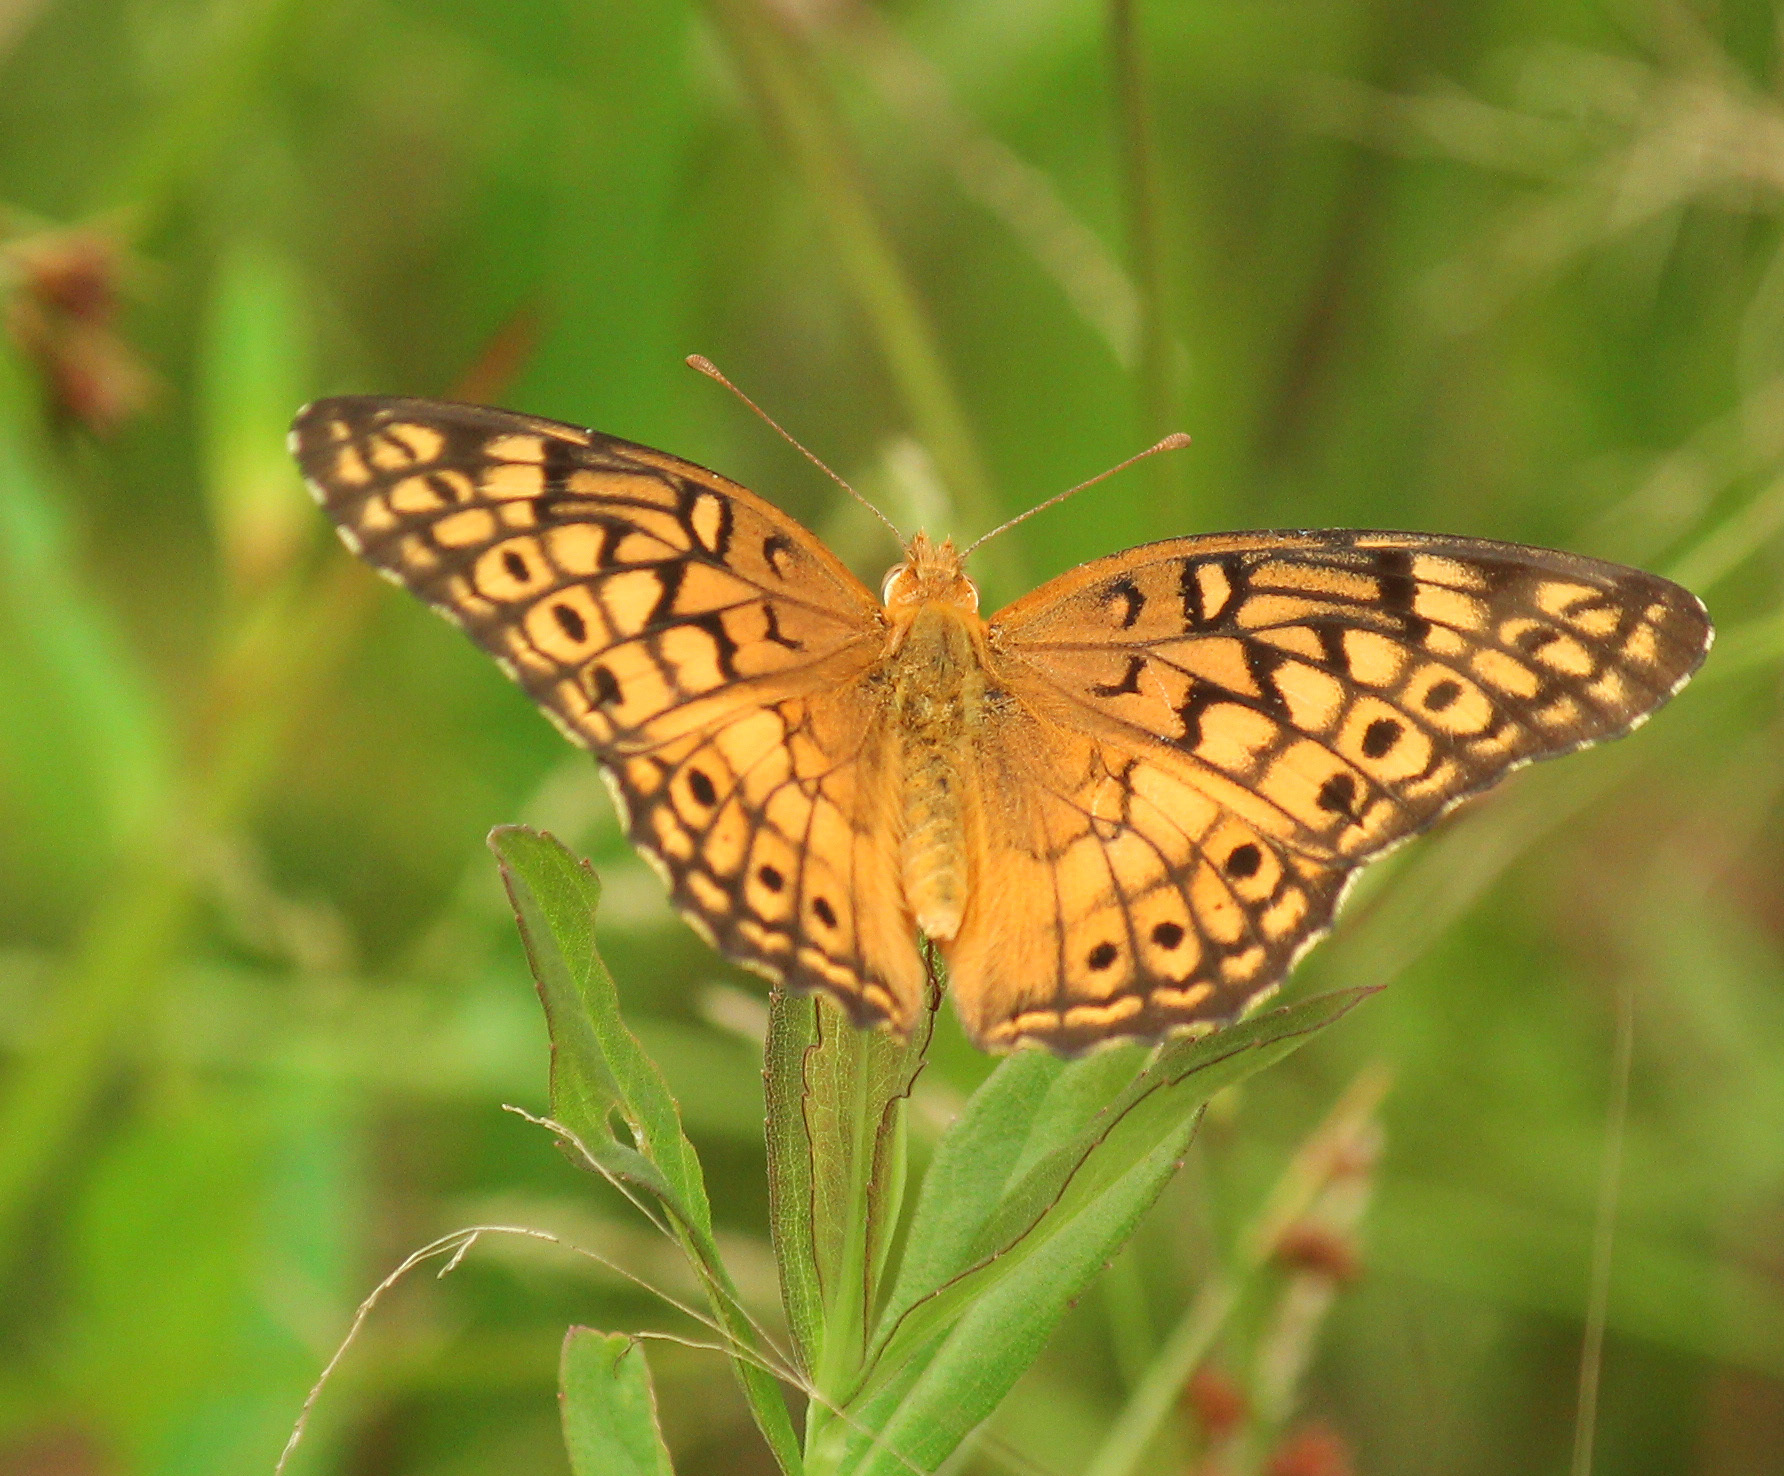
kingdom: Animalia
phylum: Arthropoda
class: Insecta
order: Lepidoptera
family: Nymphalidae
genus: Euptoieta
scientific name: Euptoieta claudia
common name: Variegated fritillary
